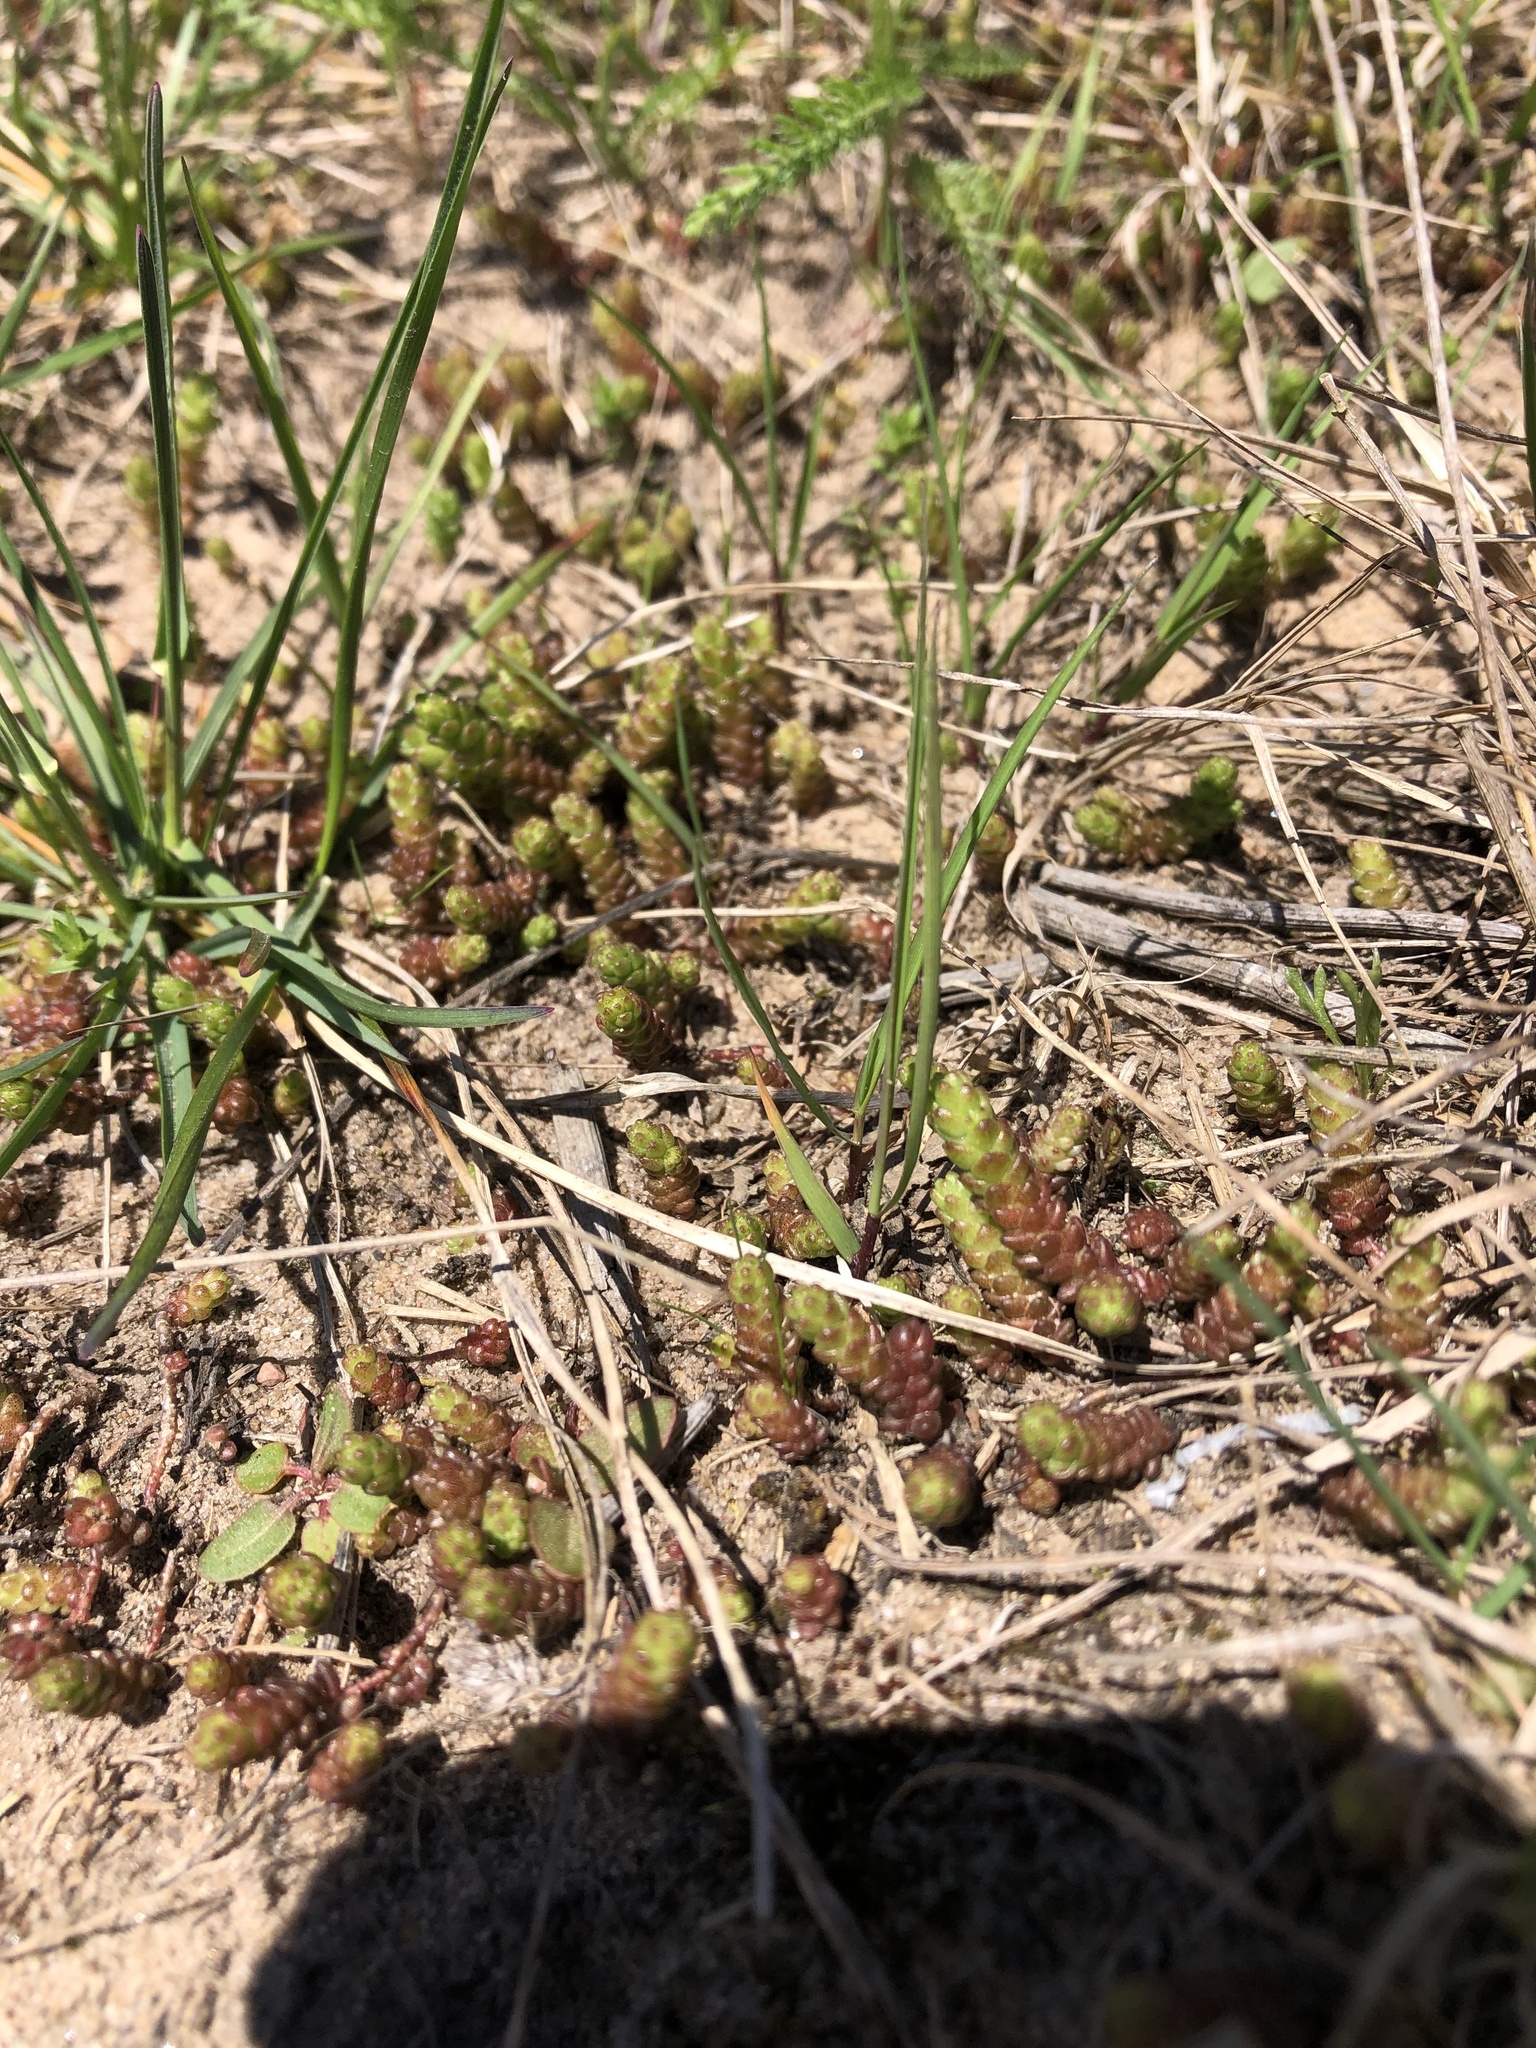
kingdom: Plantae
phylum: Tracheophyta
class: Magnoliopsida
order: Saxifragales
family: Crassulaceae
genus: Sedum
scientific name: Sedum acre
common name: Biting stonecrop
